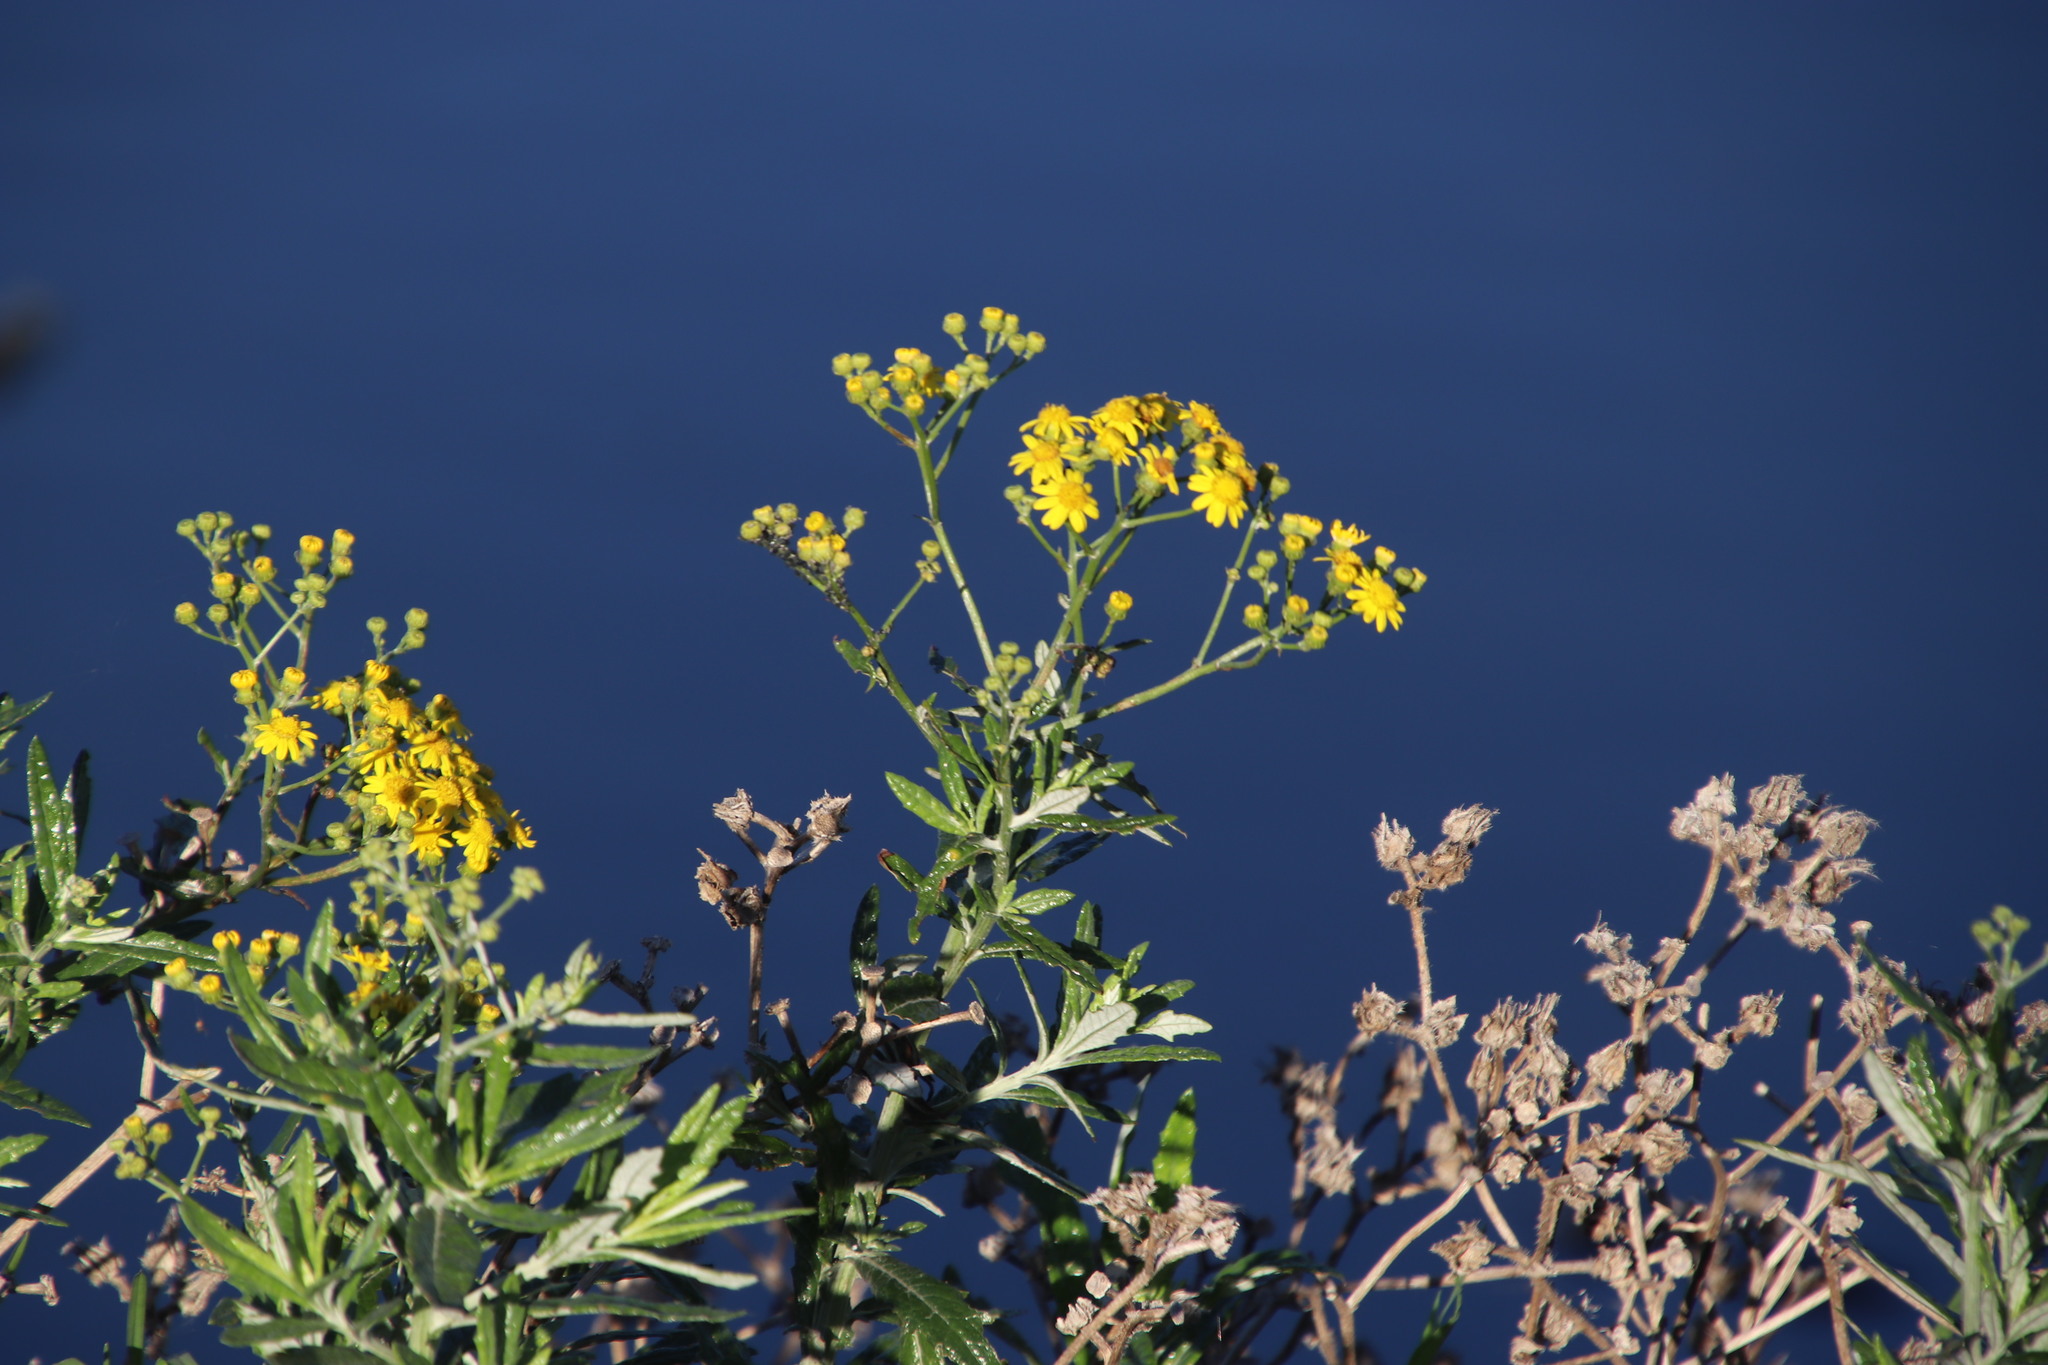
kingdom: Plantae
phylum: Tracheophyta
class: Magnoliopsida
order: Asterales
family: Asteraceae
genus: Senecio
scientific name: Senecio pterophorus
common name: Shoddy ragwort
